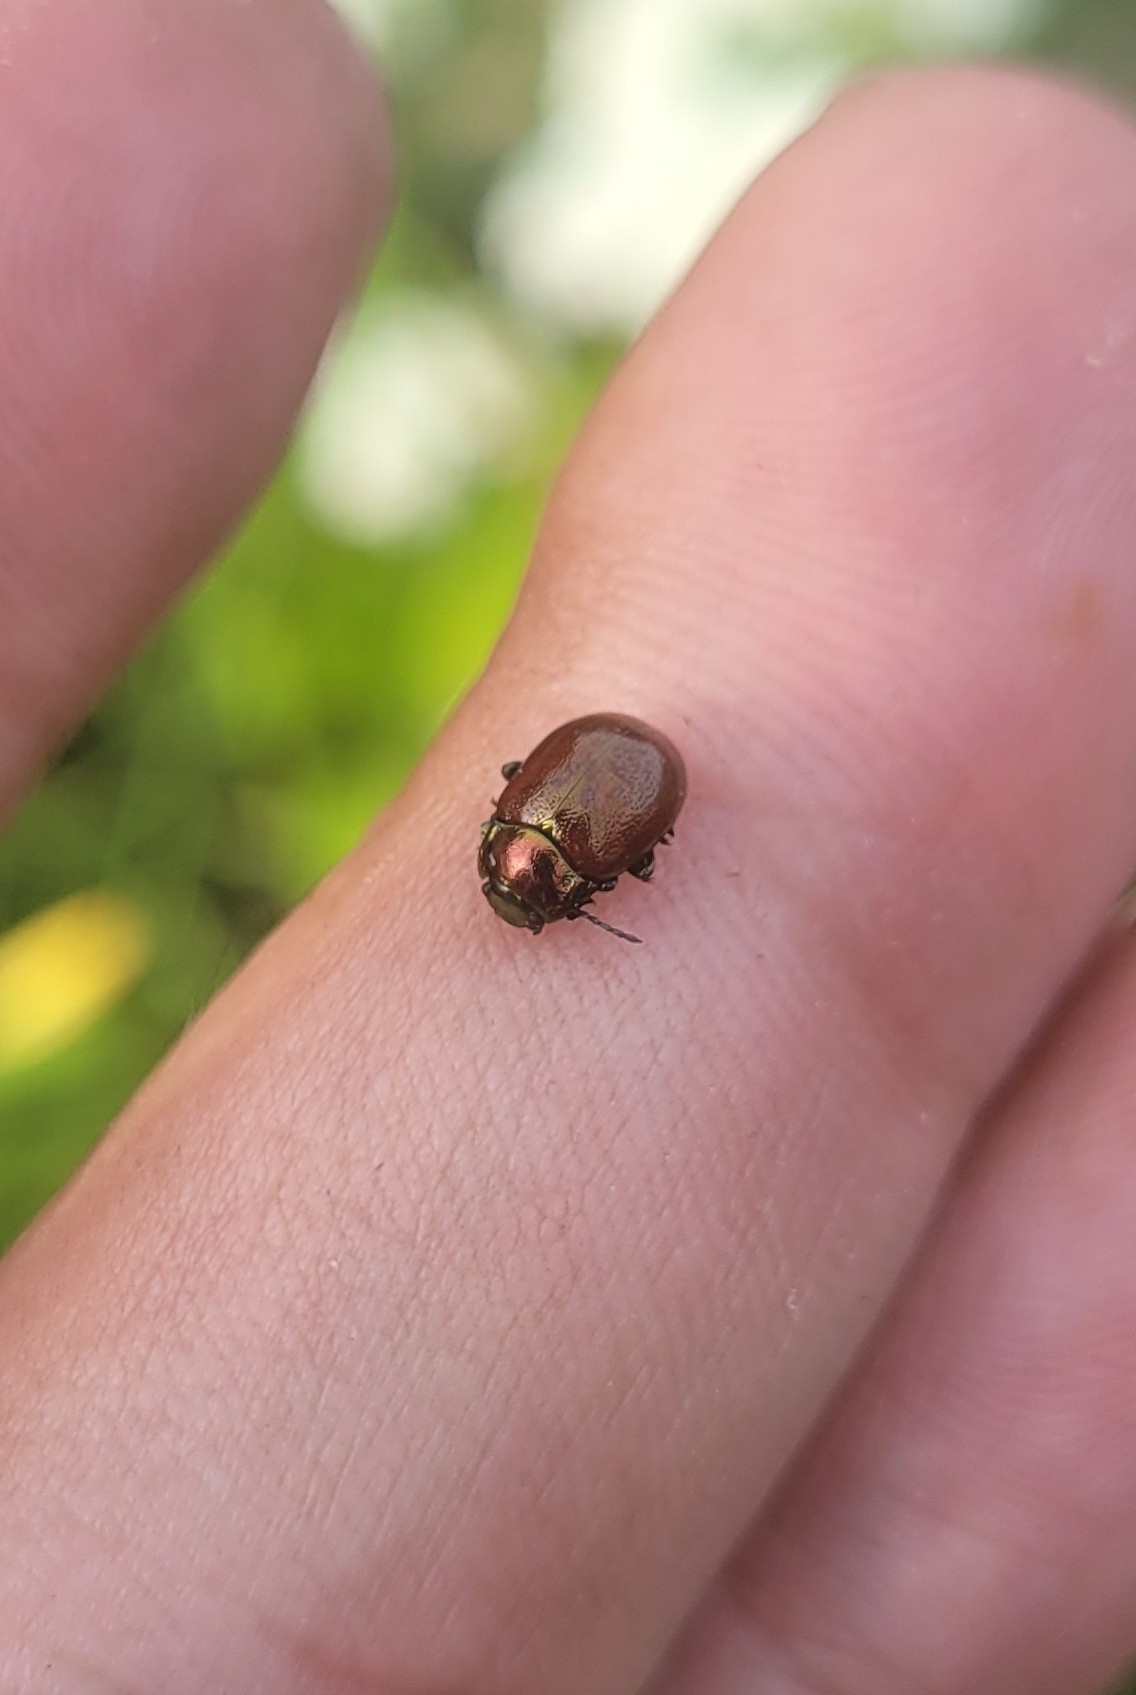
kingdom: Animalia
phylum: Arthropoda
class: Insecta
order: Coleoptera
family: Chrysomelidae
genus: Chrysomela
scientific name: Chrysomela polita
